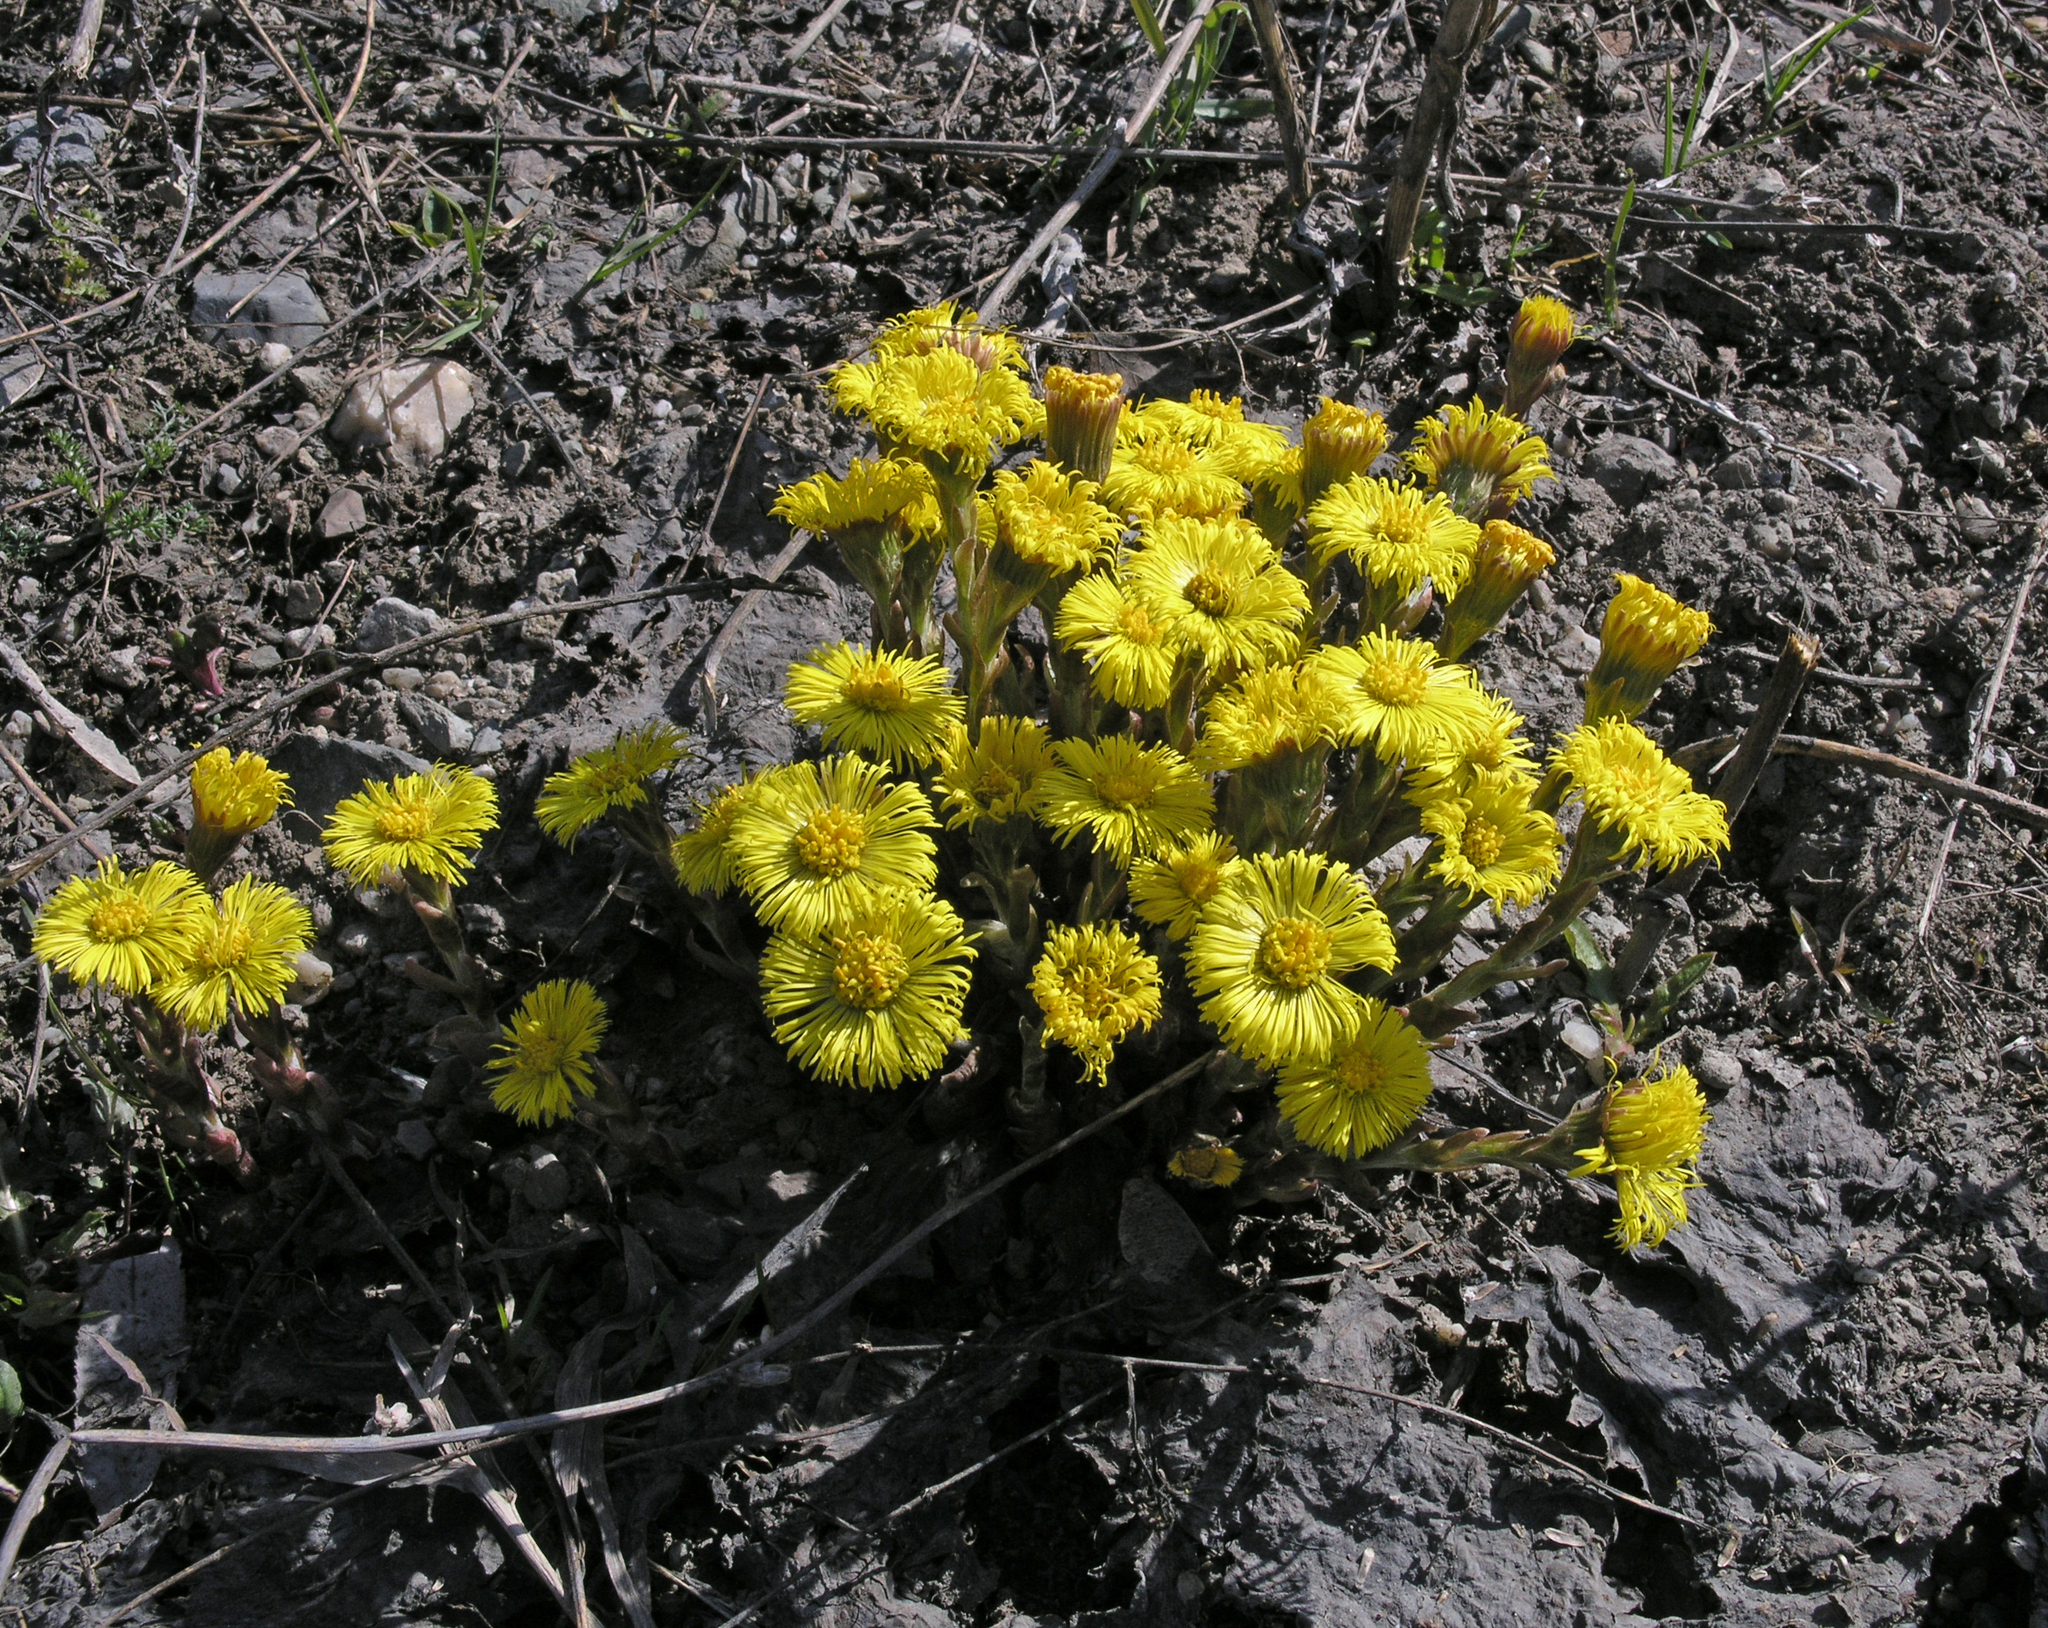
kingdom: Plantae
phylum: Tracheophyta
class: Magnoliopsida
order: Asterales
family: Asteraceae
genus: Tussilago
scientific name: Tussilago farfara
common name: Coltsfoot
